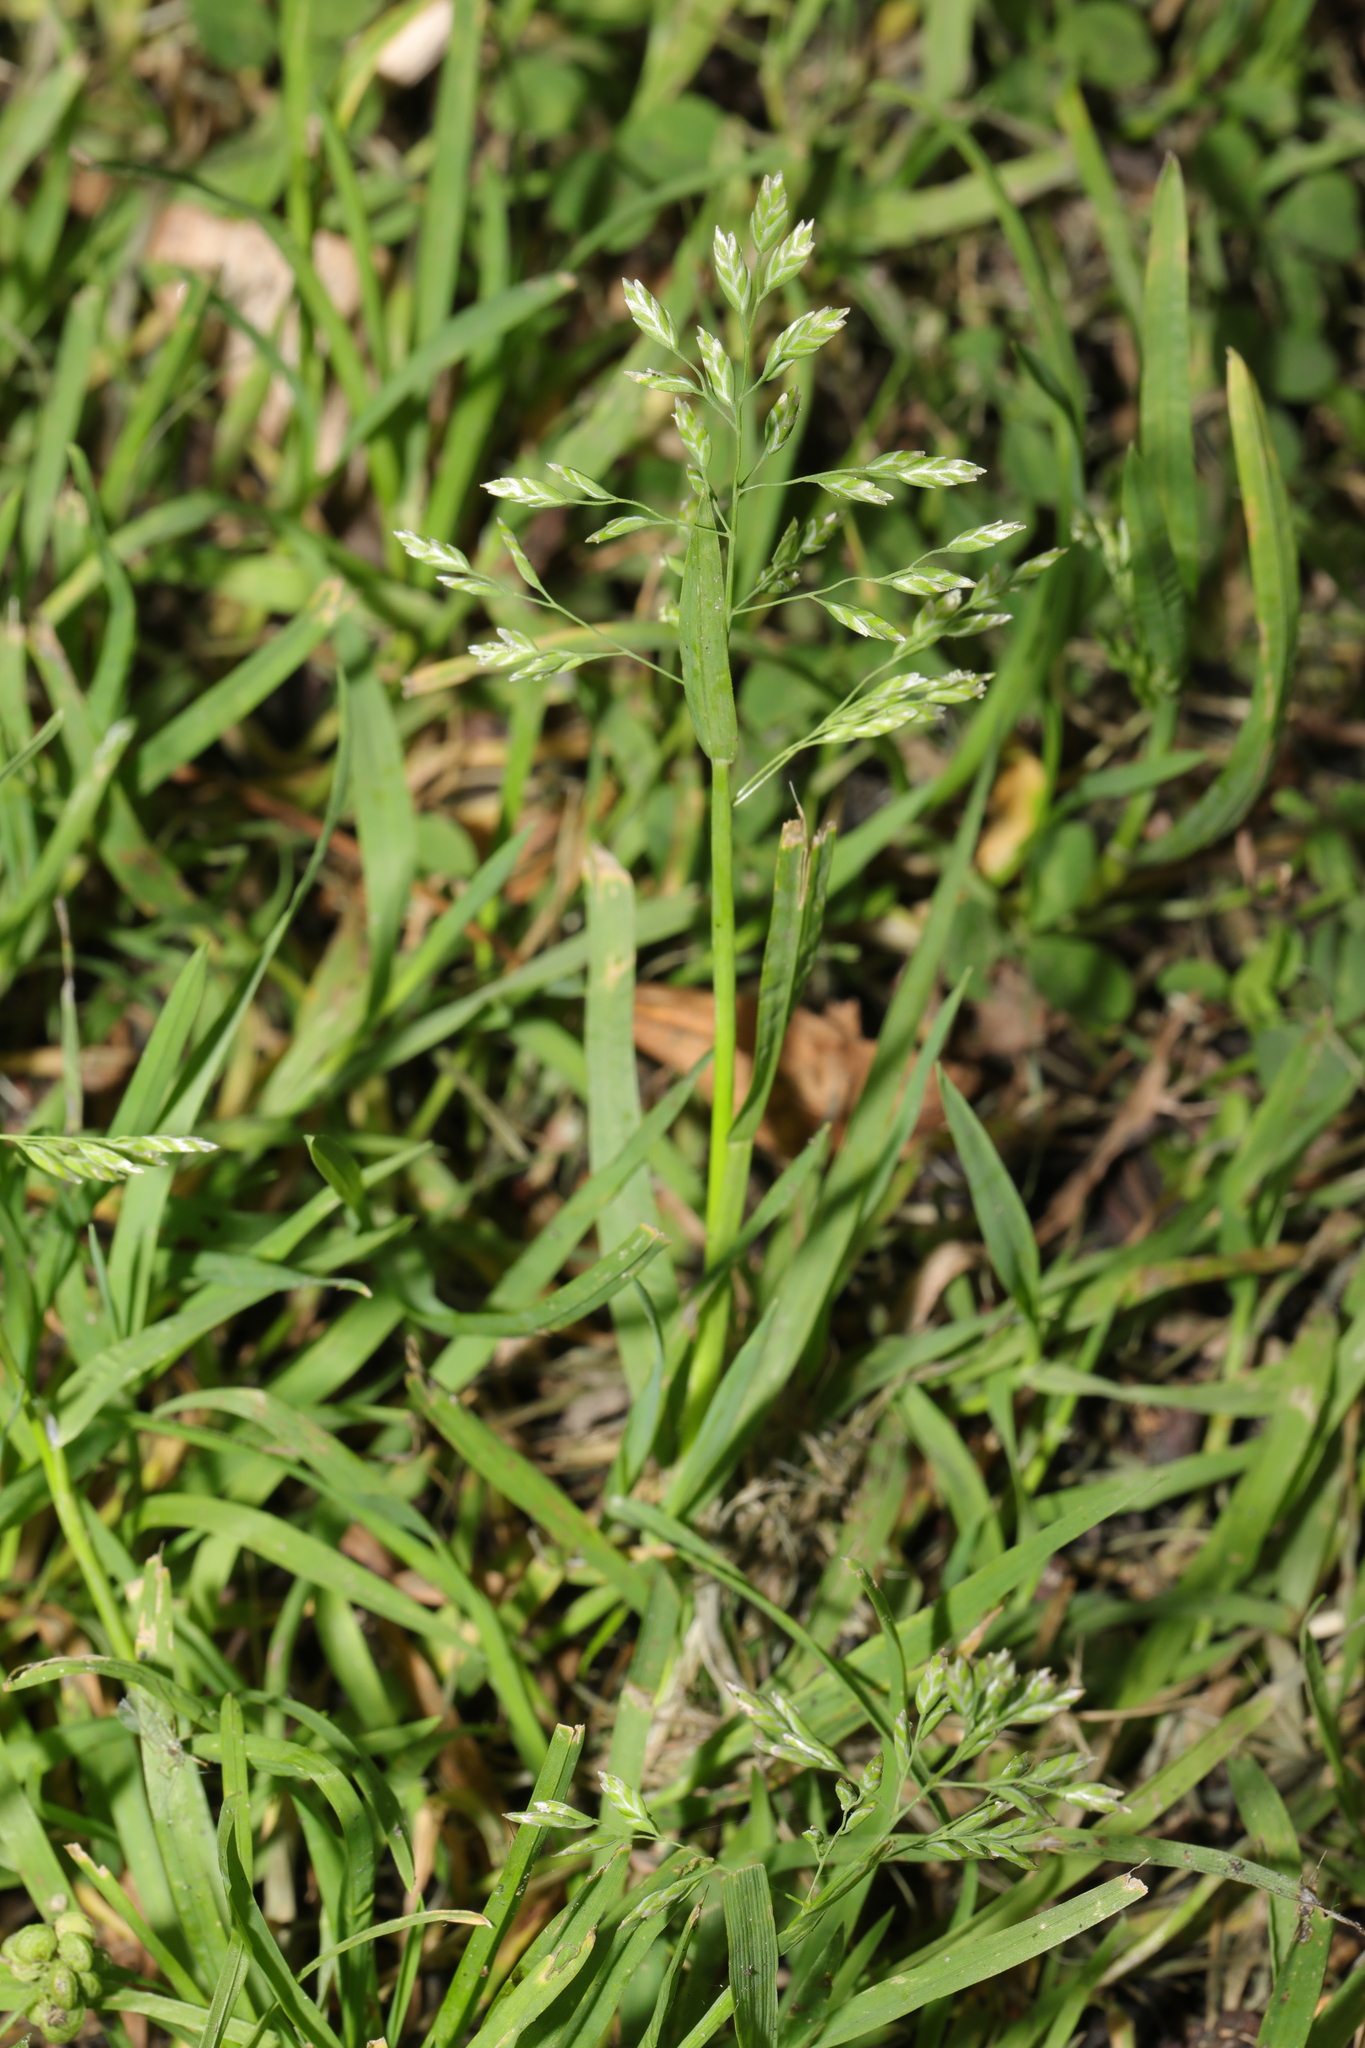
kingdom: Plantae
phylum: Tracheophyta
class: Liliopsida
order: Poales
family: Poaceae
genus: Poa
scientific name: Poa annua
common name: Annual bluegrass
